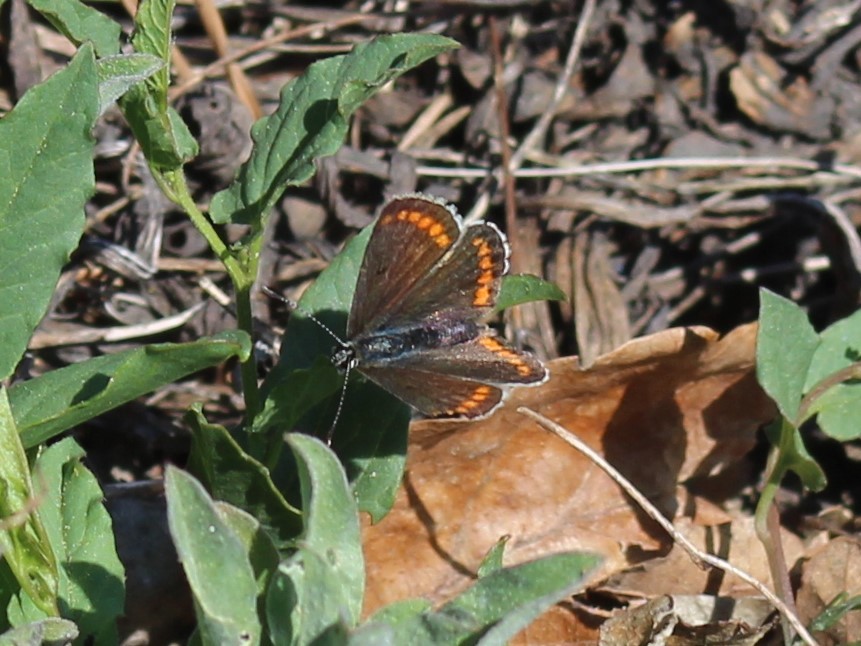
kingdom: Animalia
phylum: Arthropoda
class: Insecta
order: Lepidoptera
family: Lycaenidae
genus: Aricia
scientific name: Aricia agestis
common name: Brown argus
